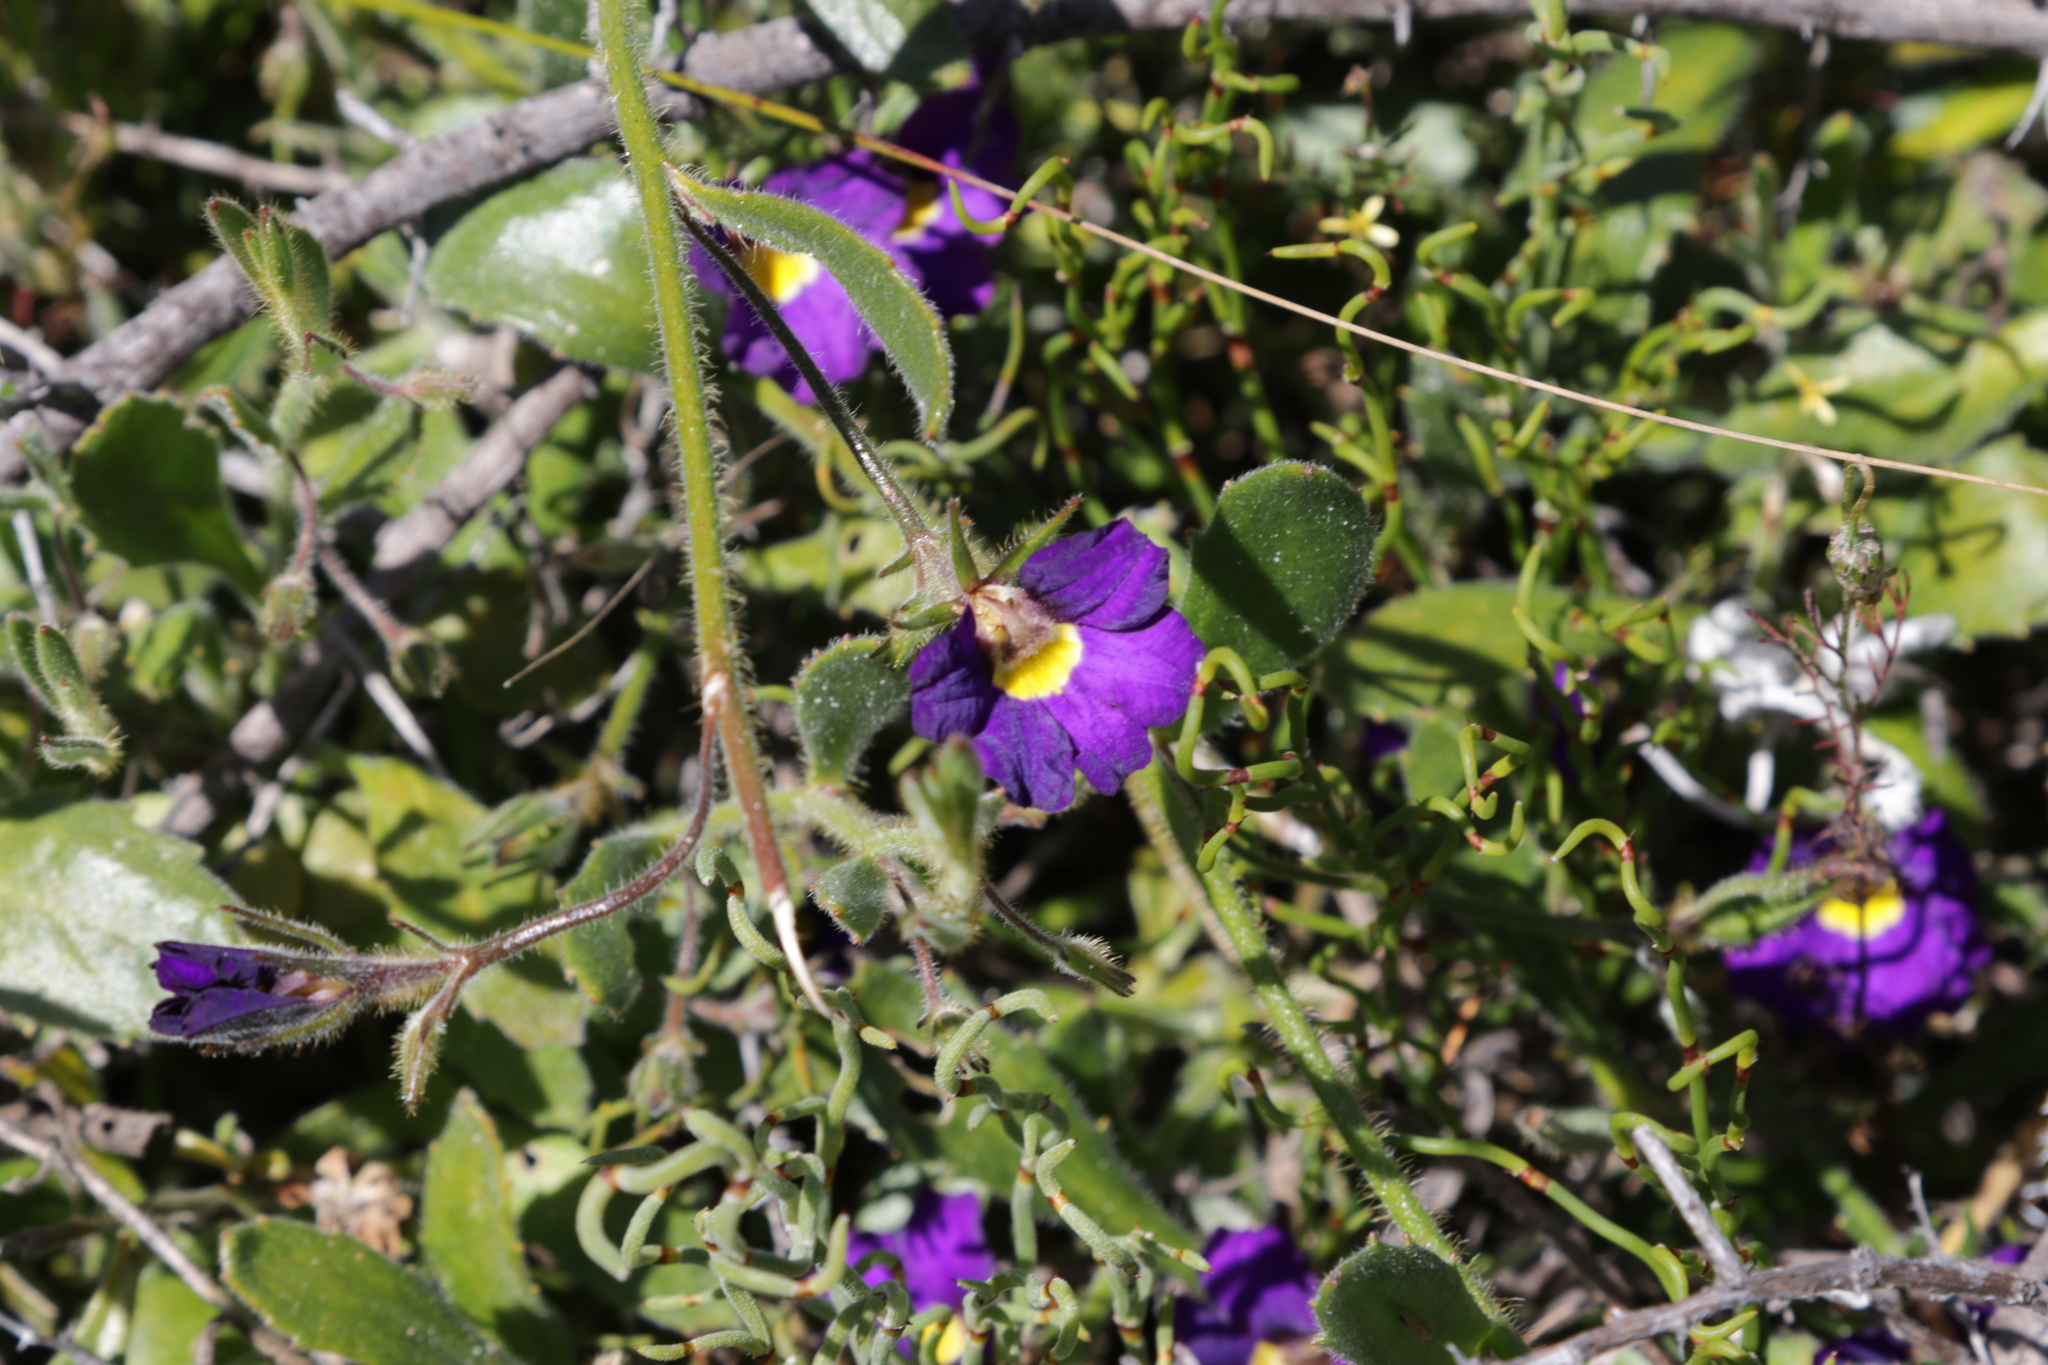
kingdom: Plantae
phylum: Tracheophyta
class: Magnoliopsida
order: Asterales
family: Goodeniaceae
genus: Scaevola
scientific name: Scaevola phlebopetala
